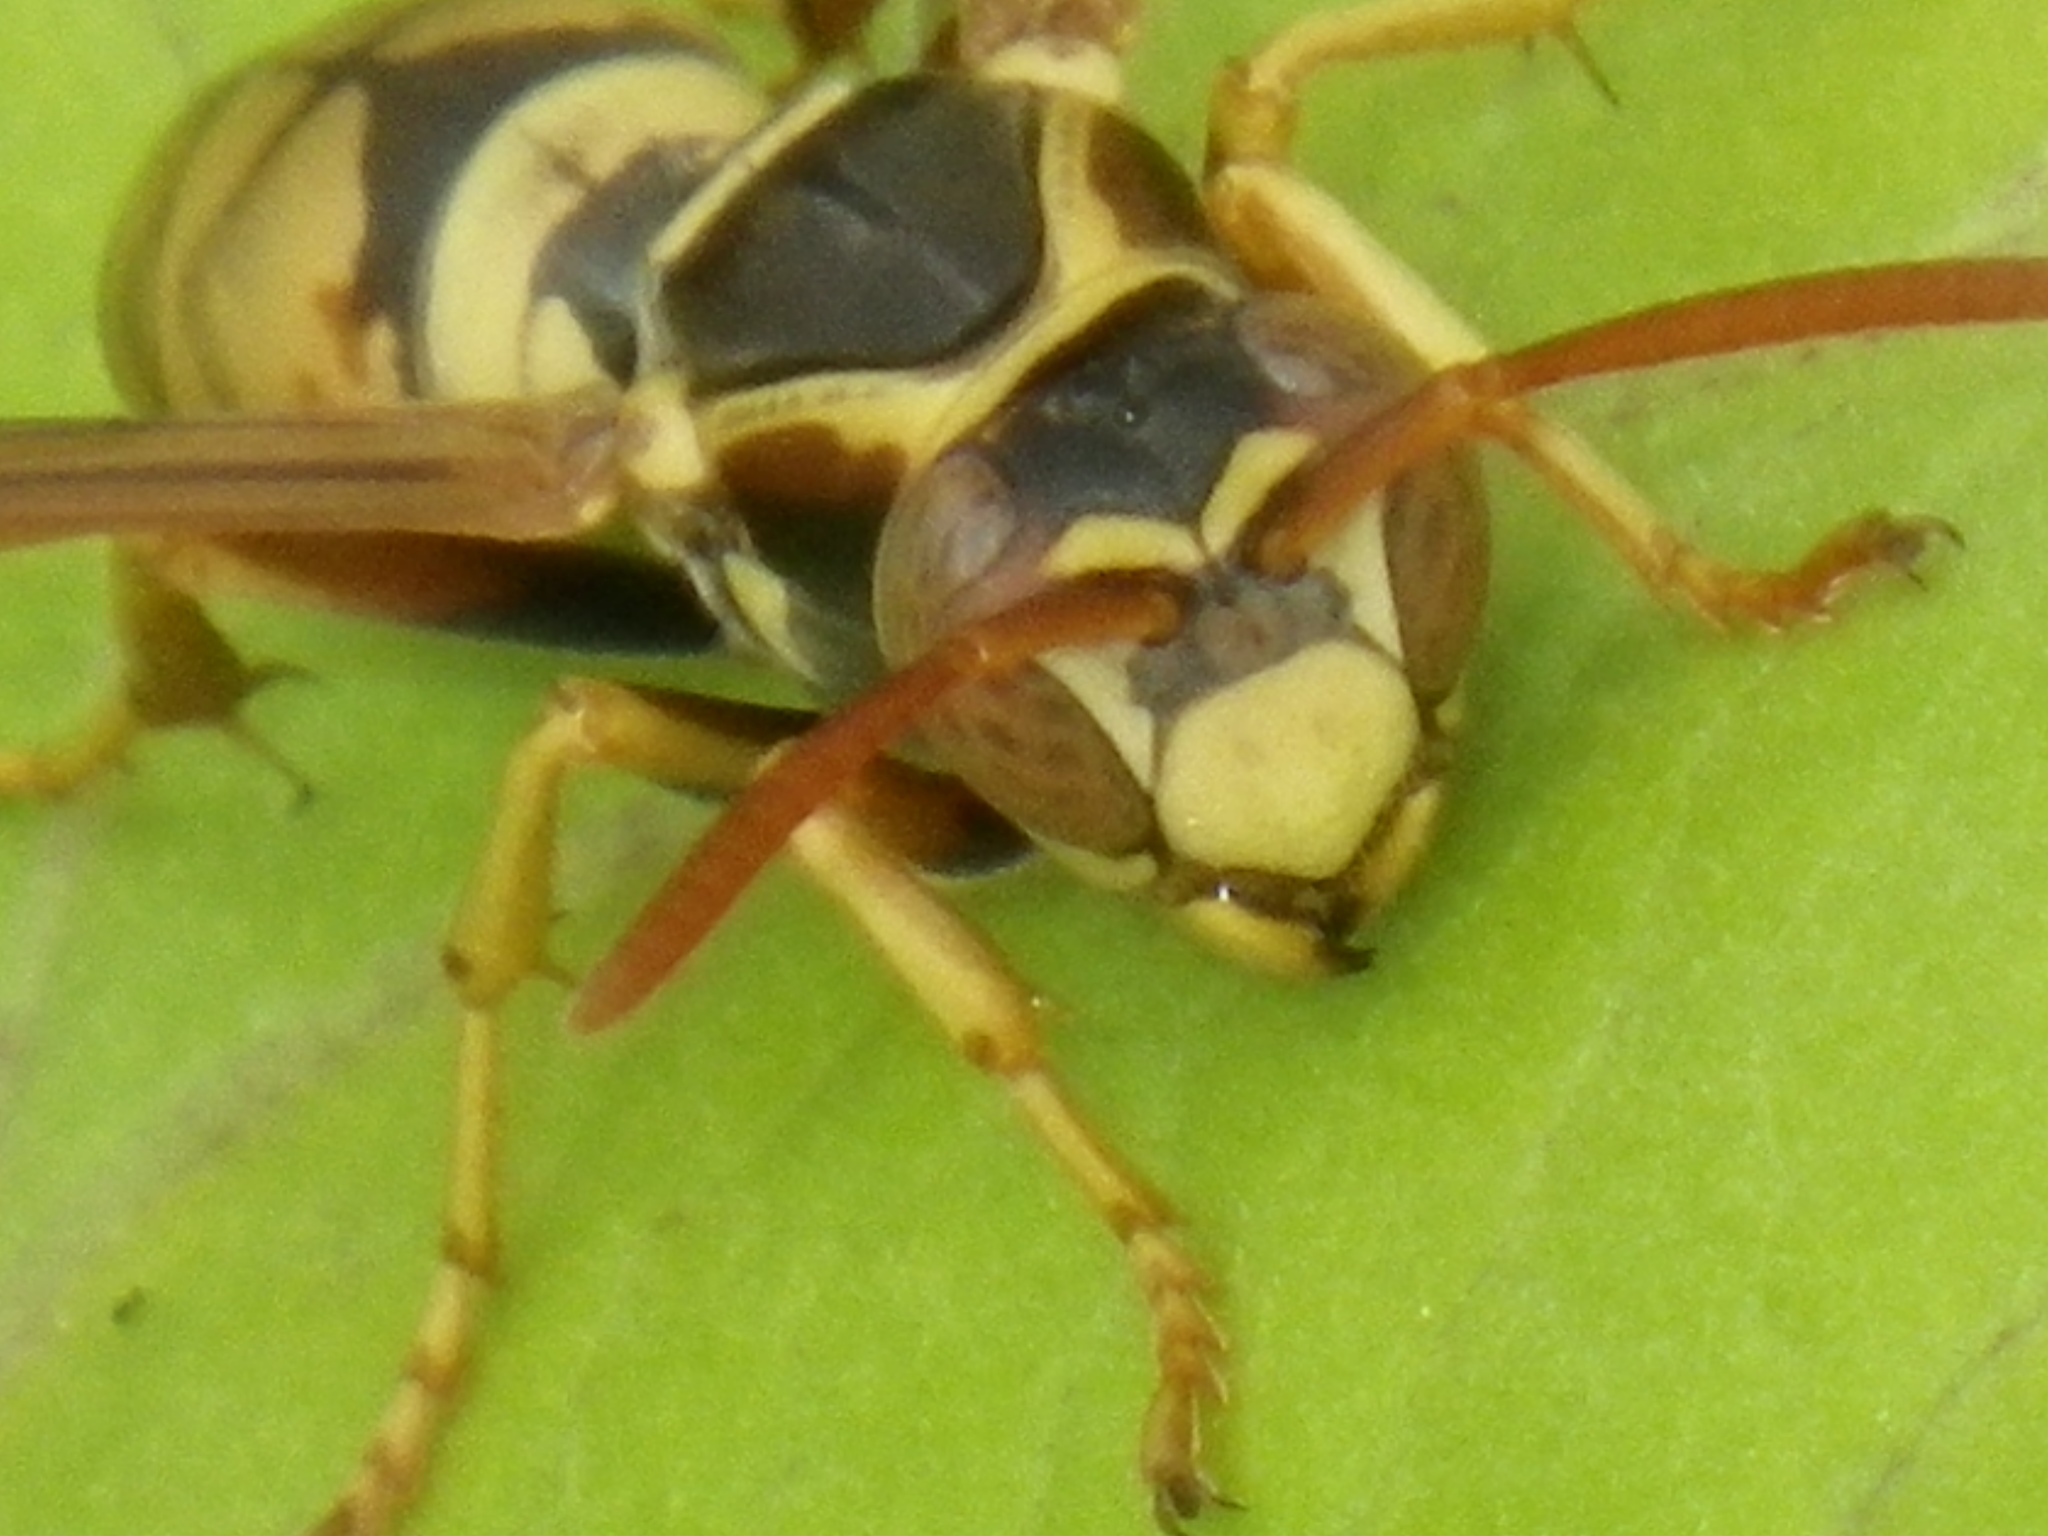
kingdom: Animalia
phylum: Arthropoda
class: Insecta
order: Hymenoptera
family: Eumenidae
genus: Polistes
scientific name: Polistes aurifer
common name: Paper wasp
